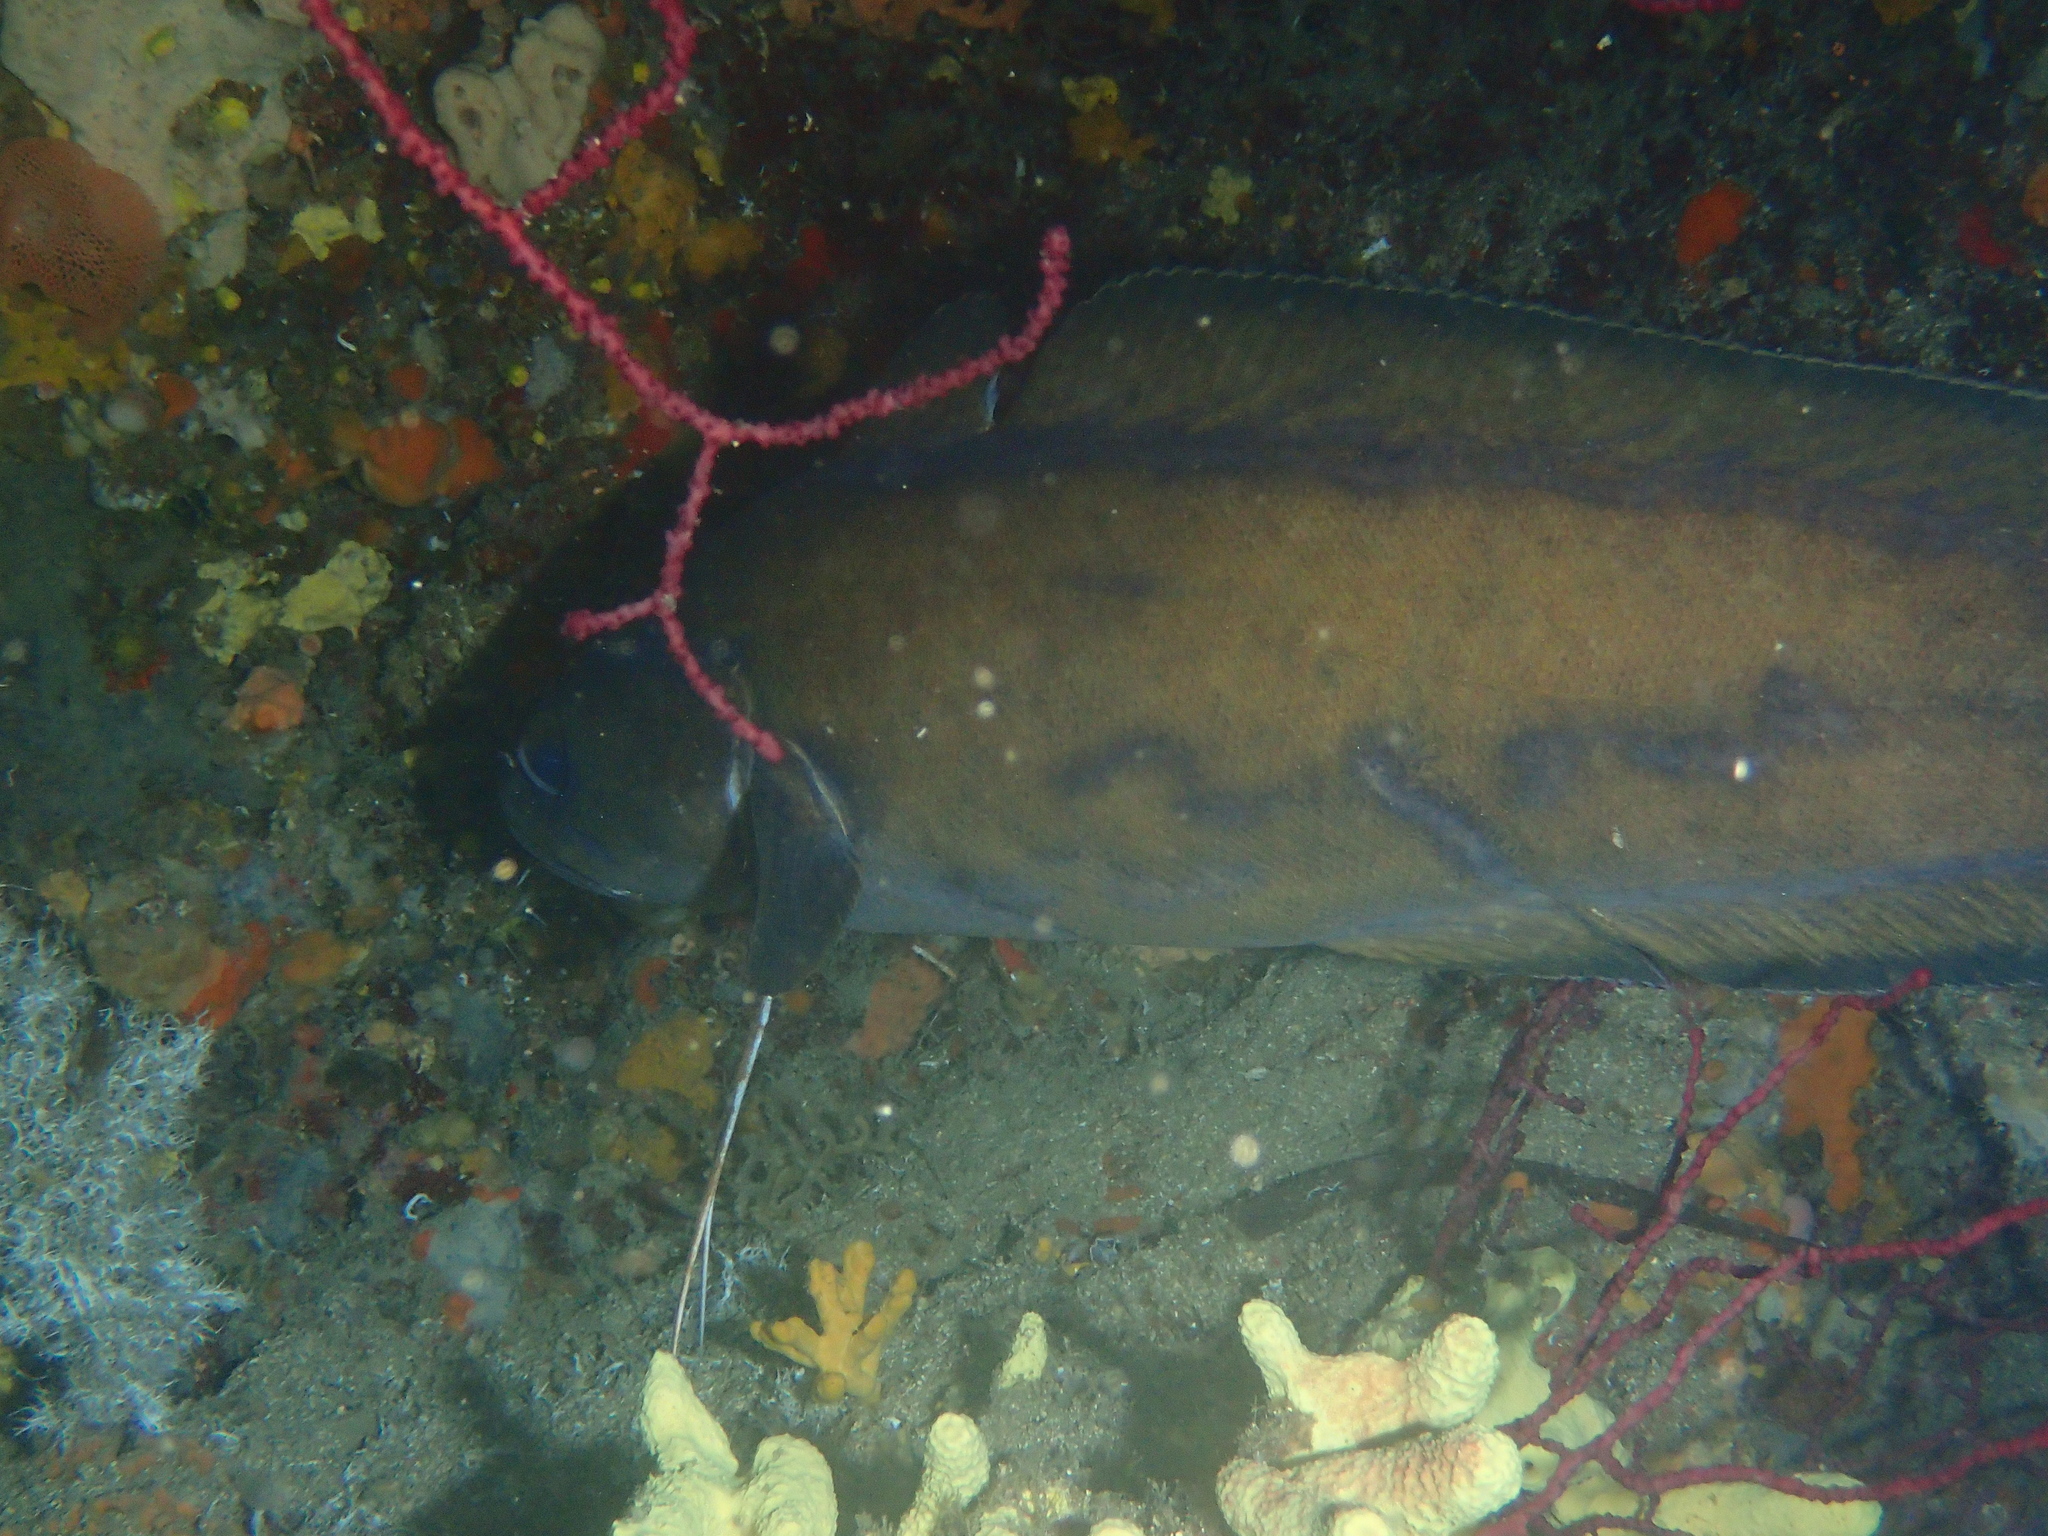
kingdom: Animalia
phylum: Chordata
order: Gadiformes
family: Phycidae
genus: Phycis
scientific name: Phycis phycis
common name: Forkbeard
